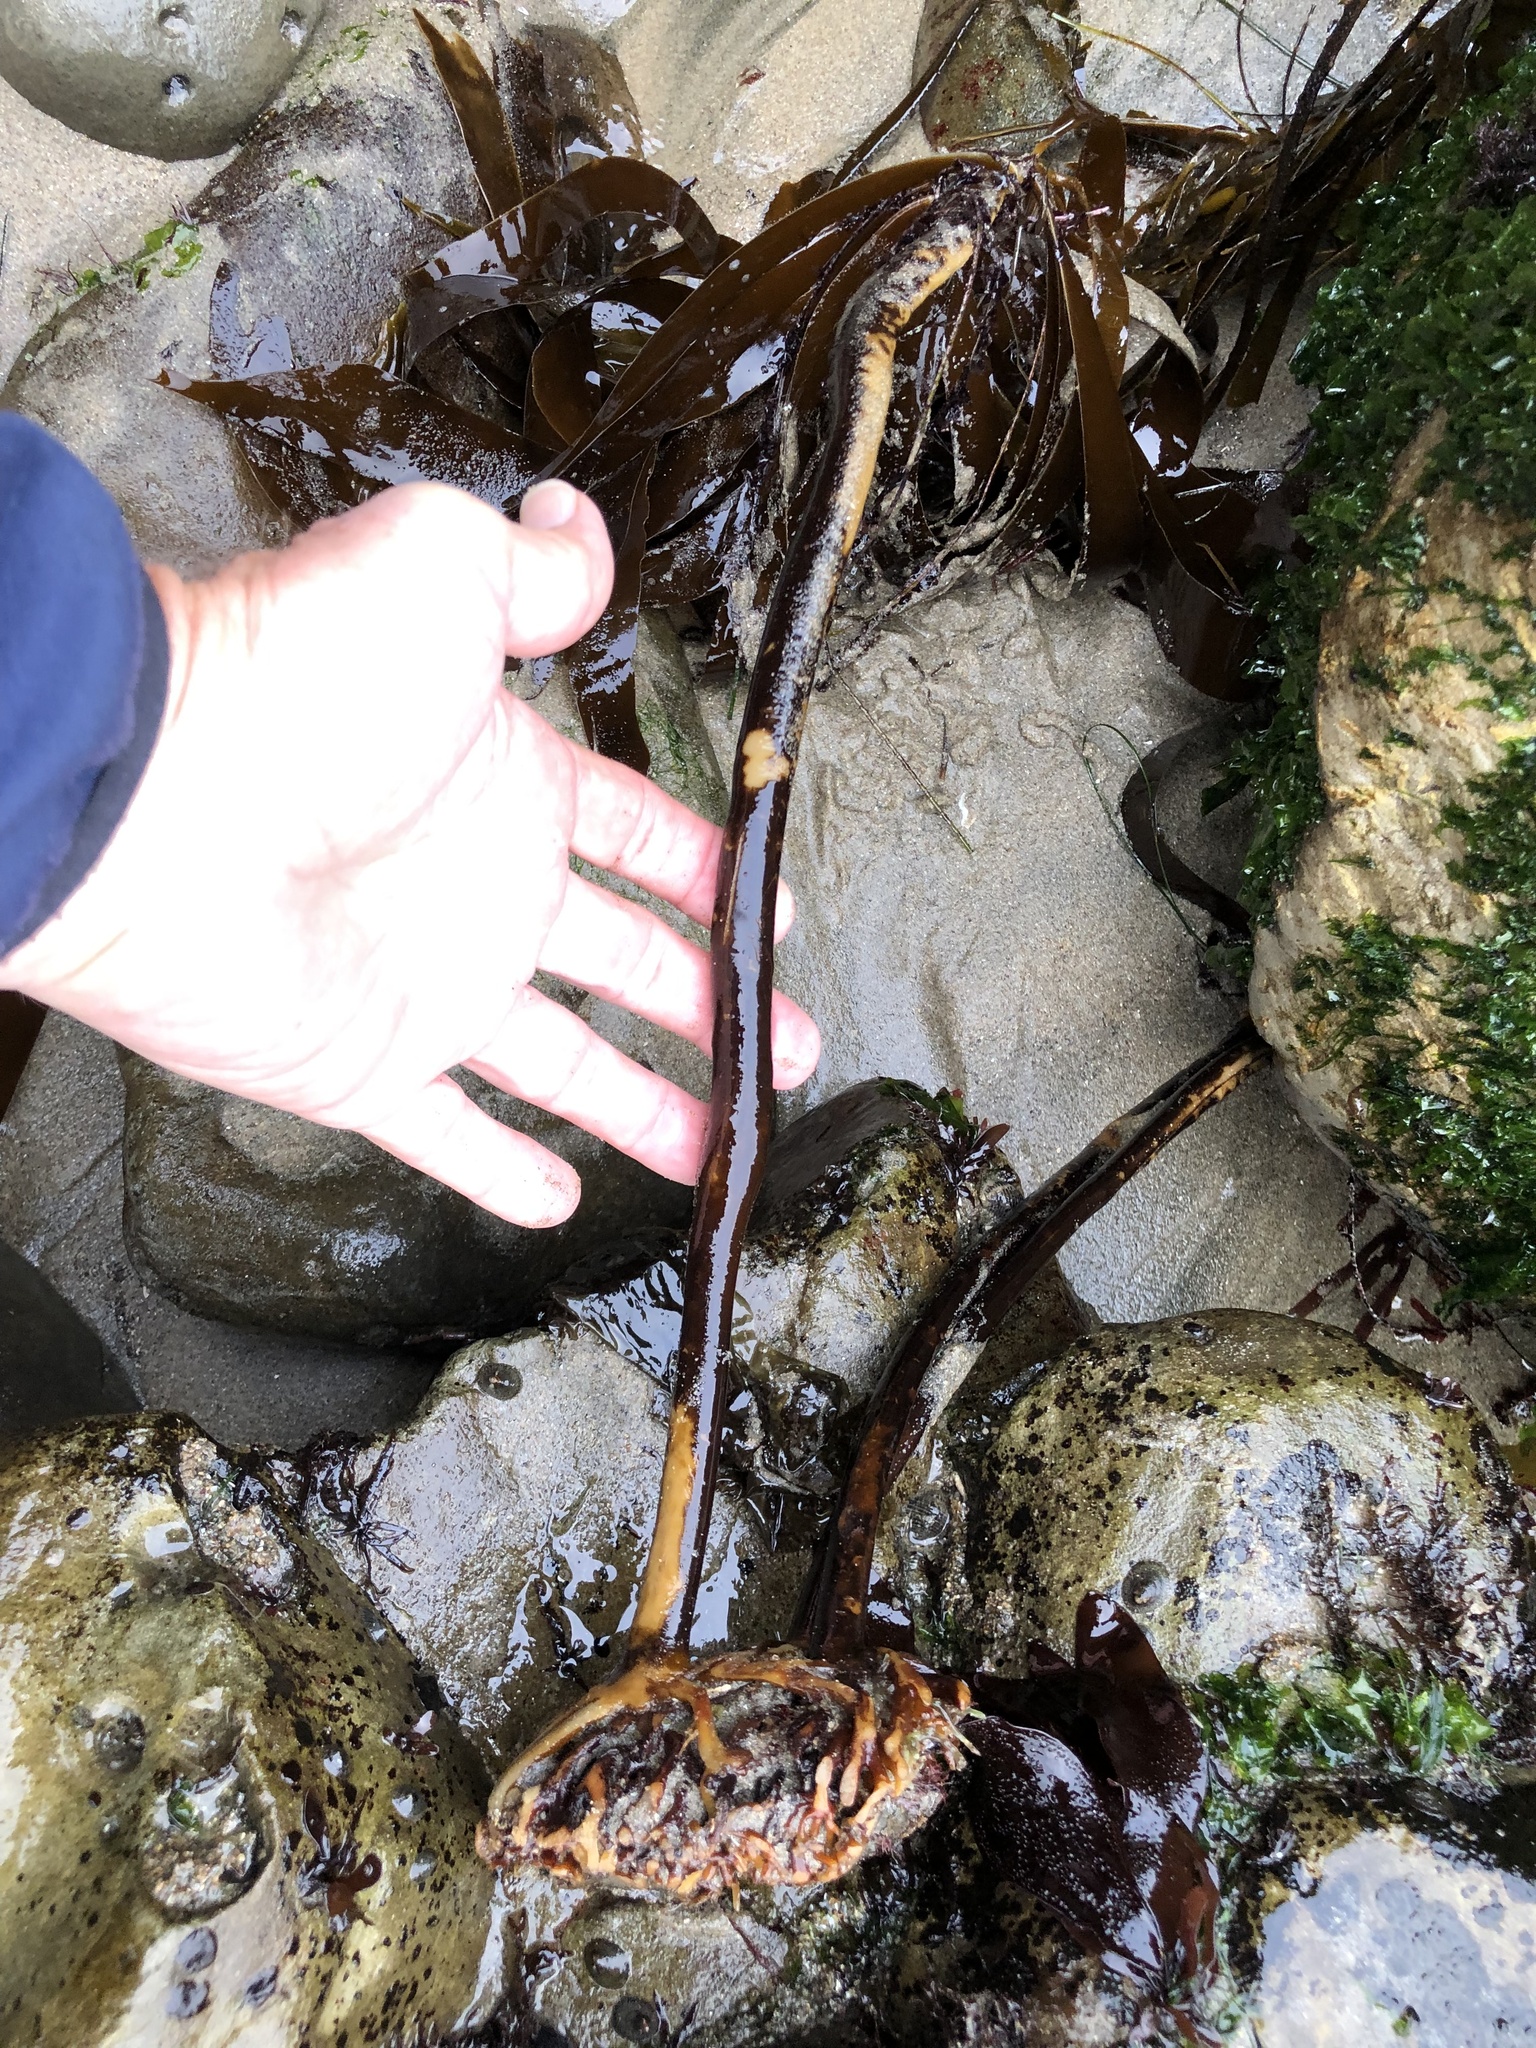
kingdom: Chromista
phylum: Ochrophyta
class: Phaeophyceae
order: Laminariales
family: Alariaceae
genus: Pterygophora
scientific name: Pterygophora californica
